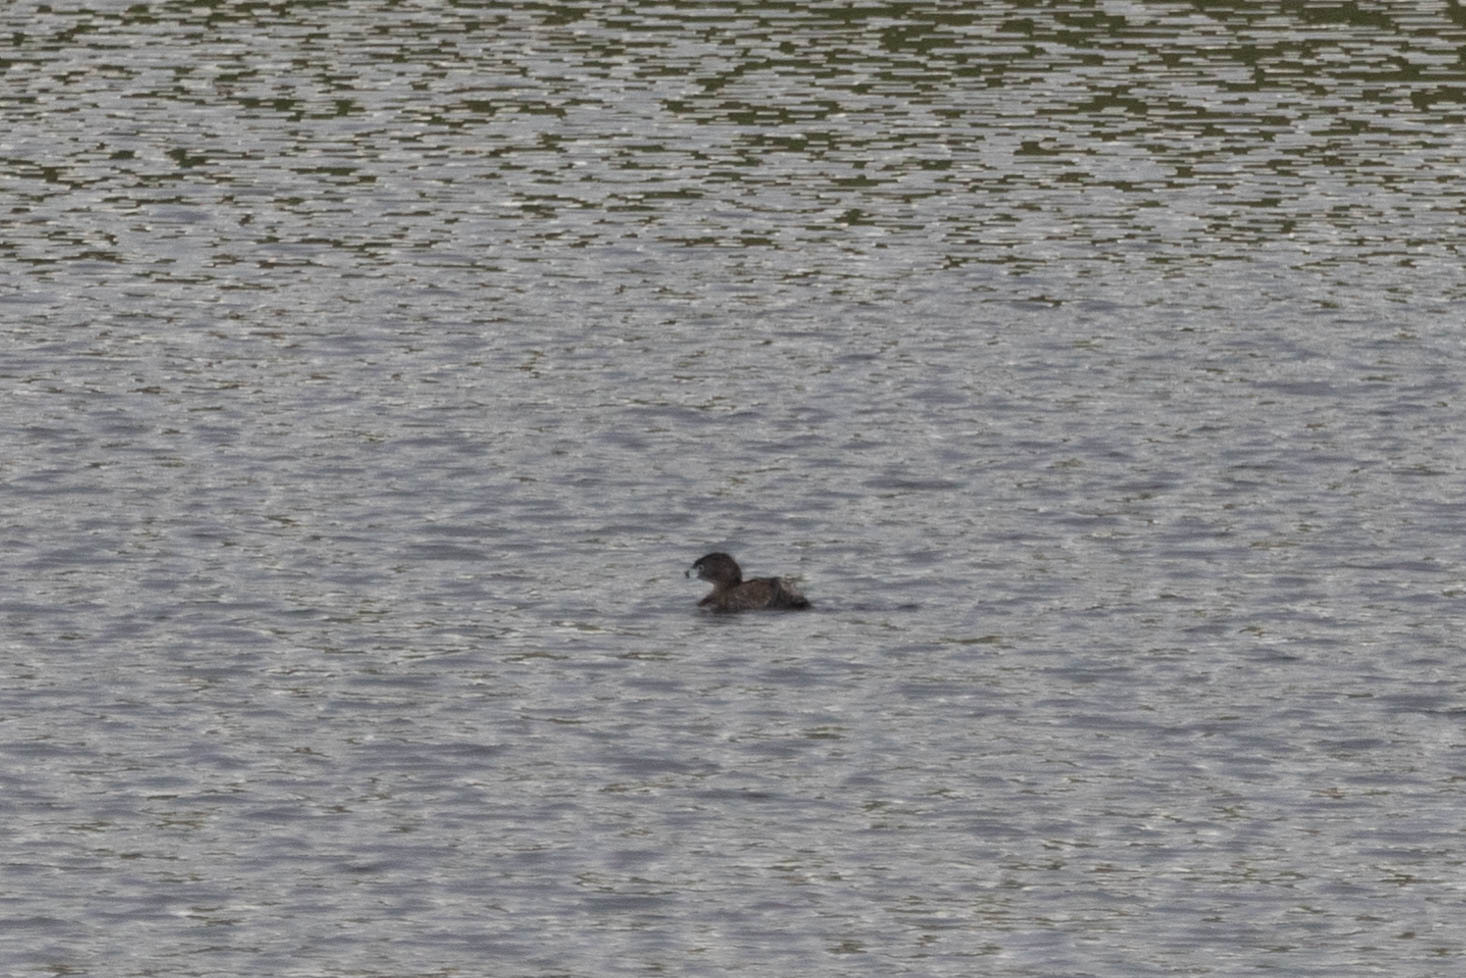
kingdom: Animalia
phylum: Chordata
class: Aves
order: Podicipediformes
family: Podicipedidae
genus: Podilymbus
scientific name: Podilymbus podiceps
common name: Pied-billed grebe
